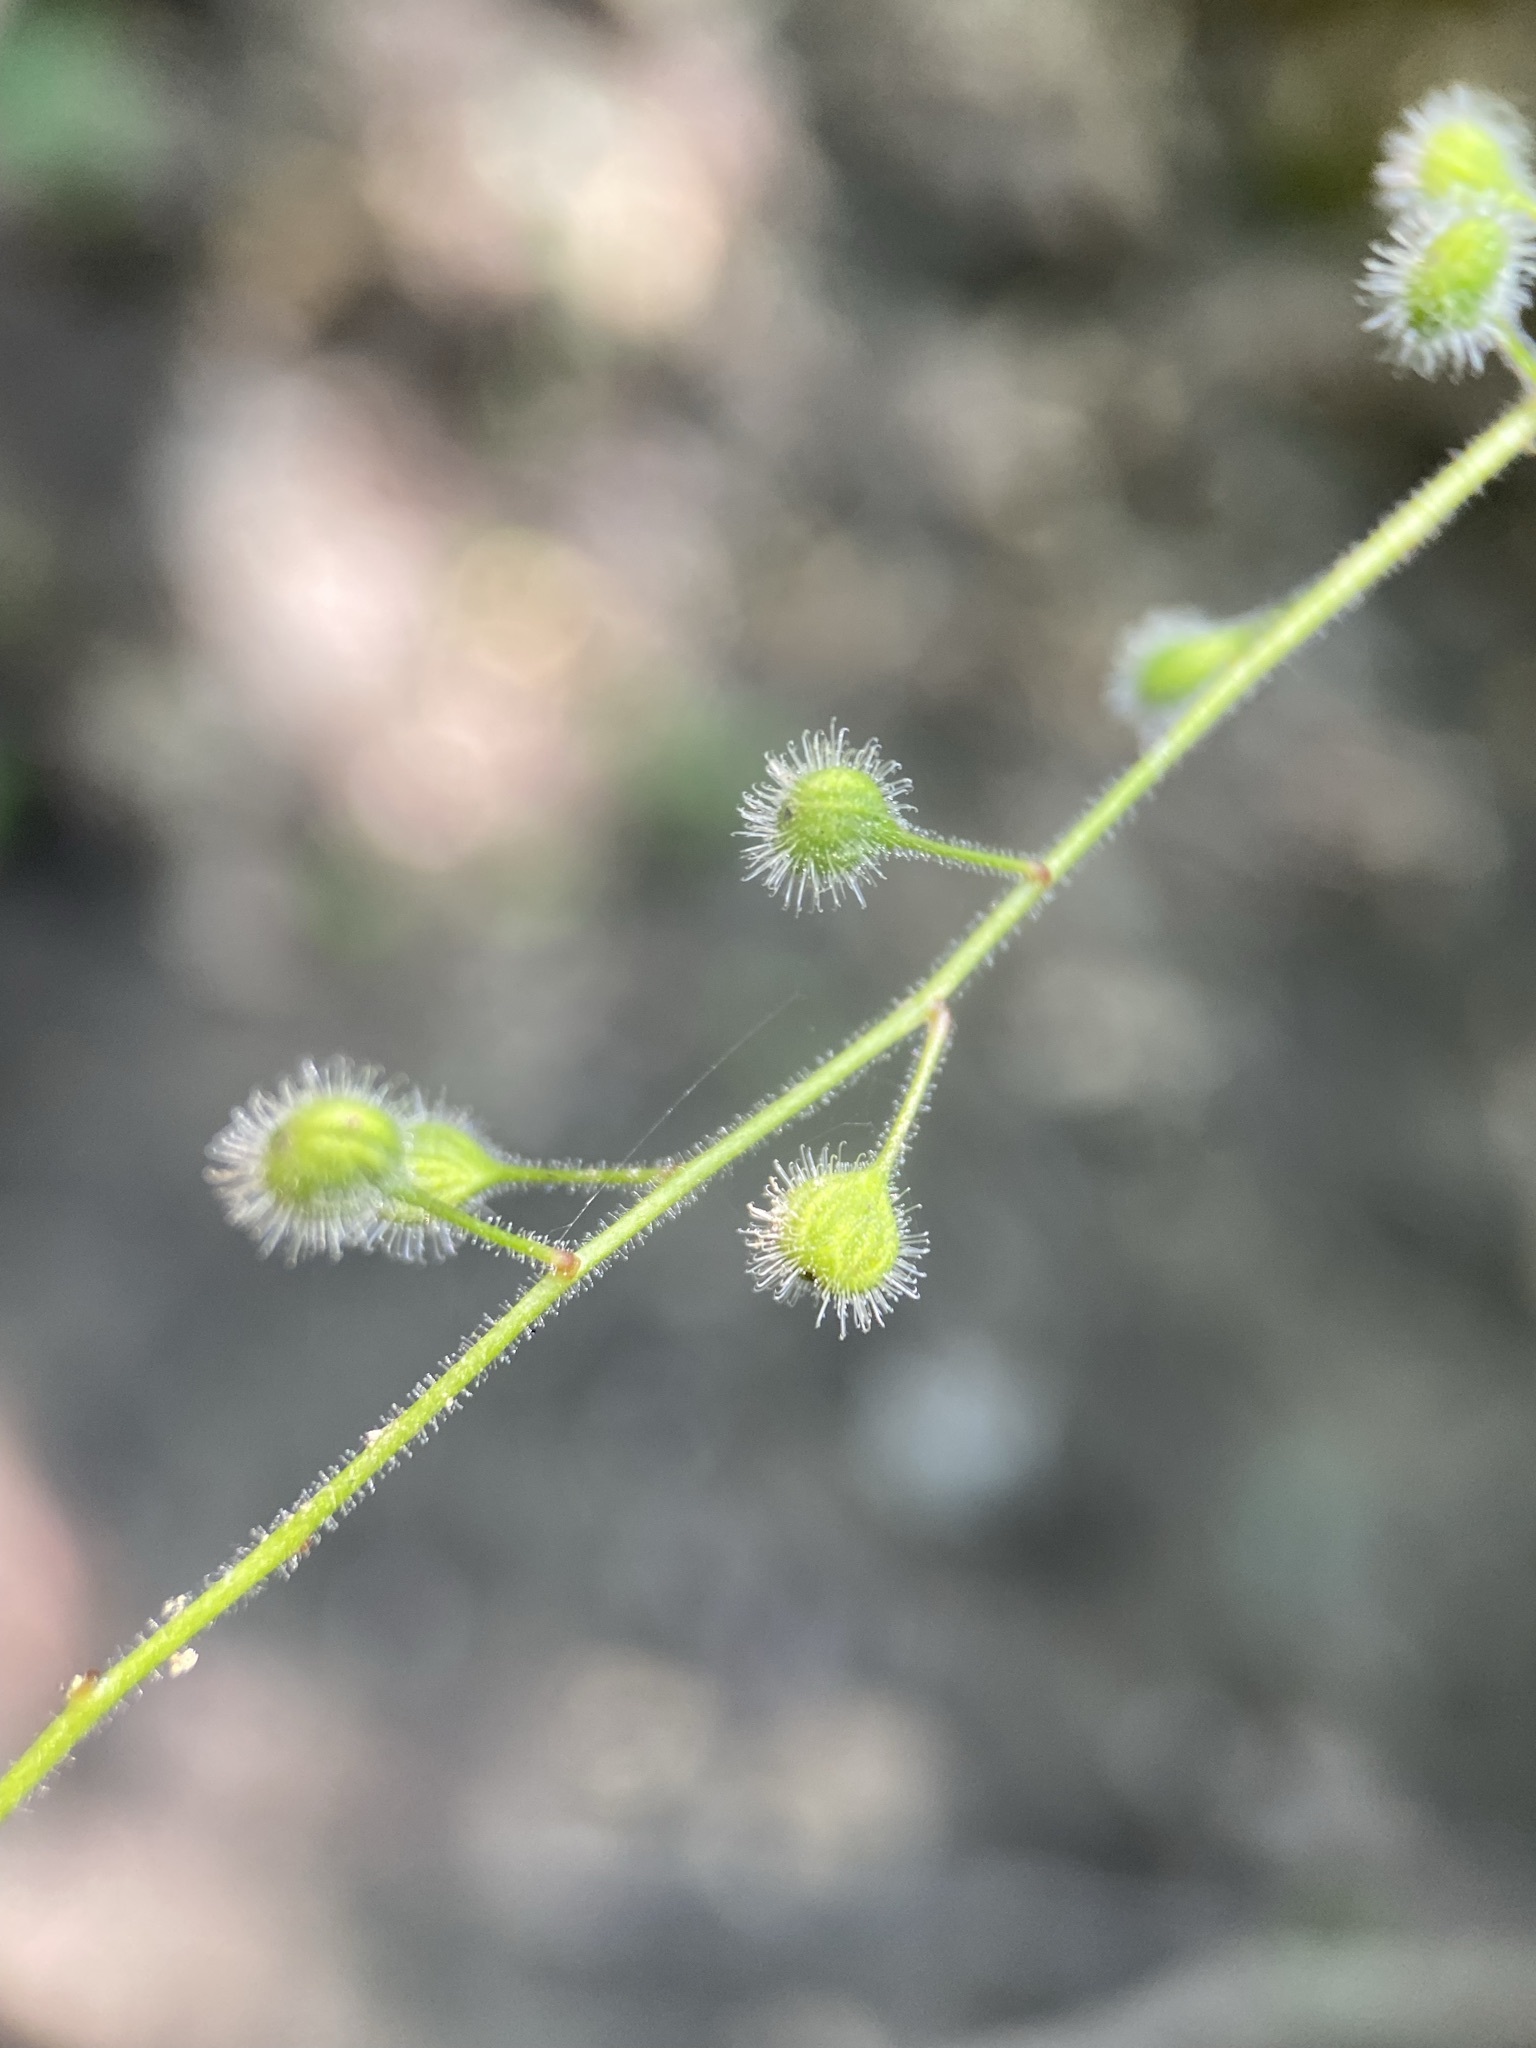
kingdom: Plantae
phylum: Tracheophyta
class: Magnoliopsida
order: Myrtales
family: Onagraceae
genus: Circaea
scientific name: Circaea canadensis
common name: Broad-leaved enchanter's nightshade
